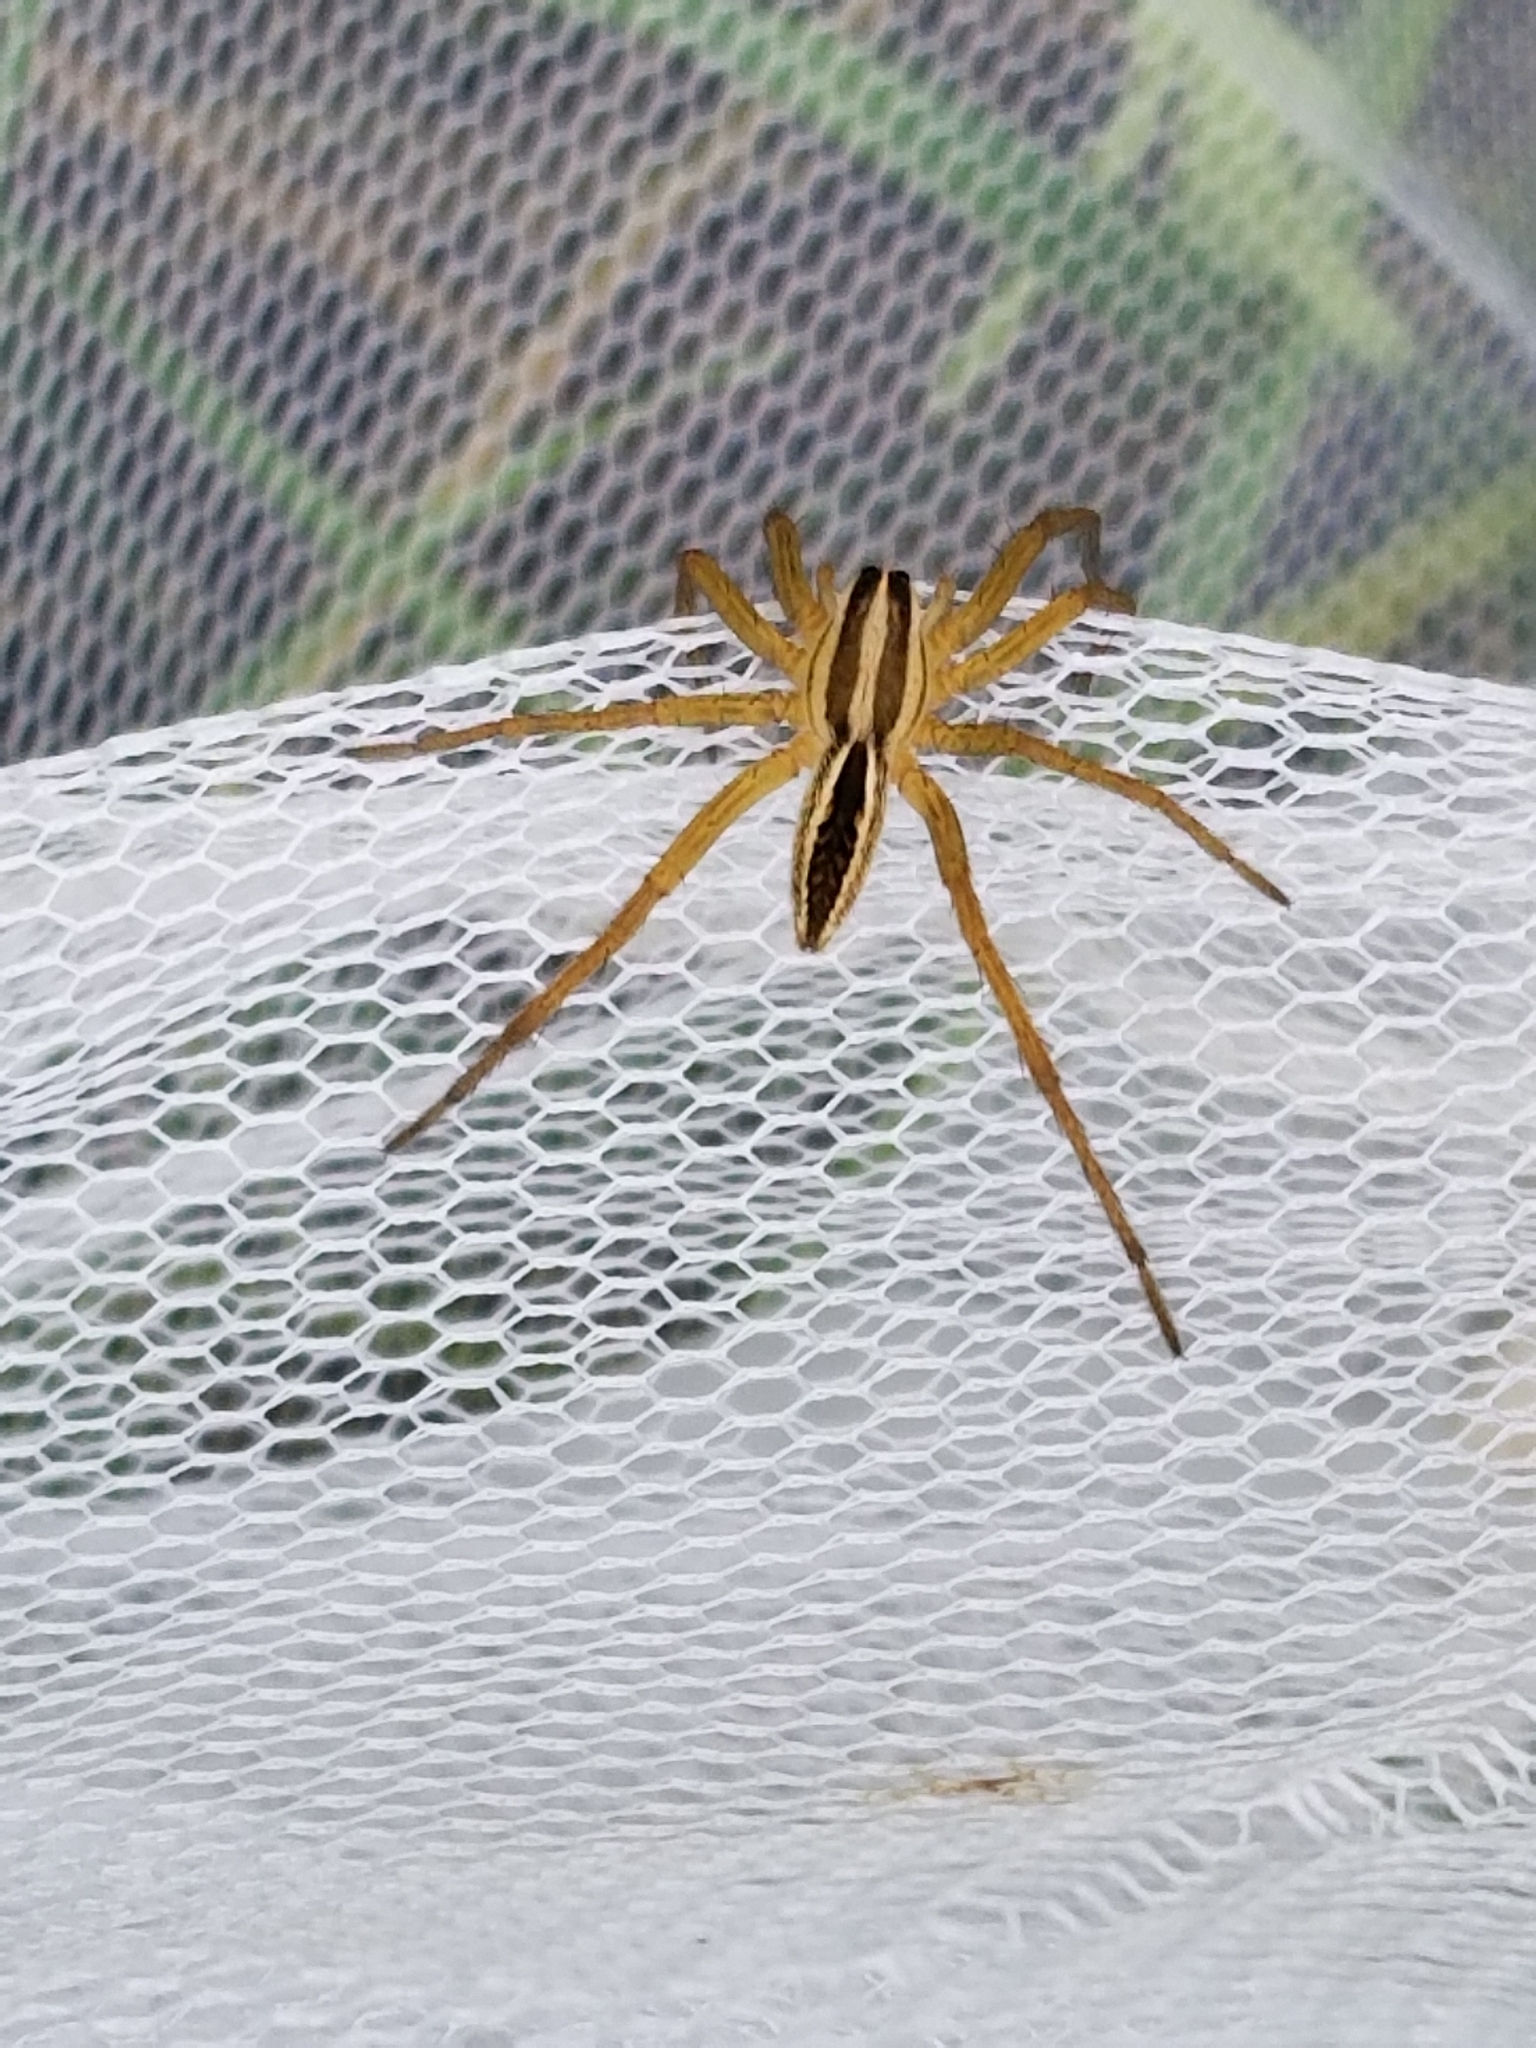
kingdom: Animalia
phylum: Arthropoda
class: Arachnida
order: Araneae
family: Lycosidae
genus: Rabidosa
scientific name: Rabidosa rabida
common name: Rabid wolf spider
